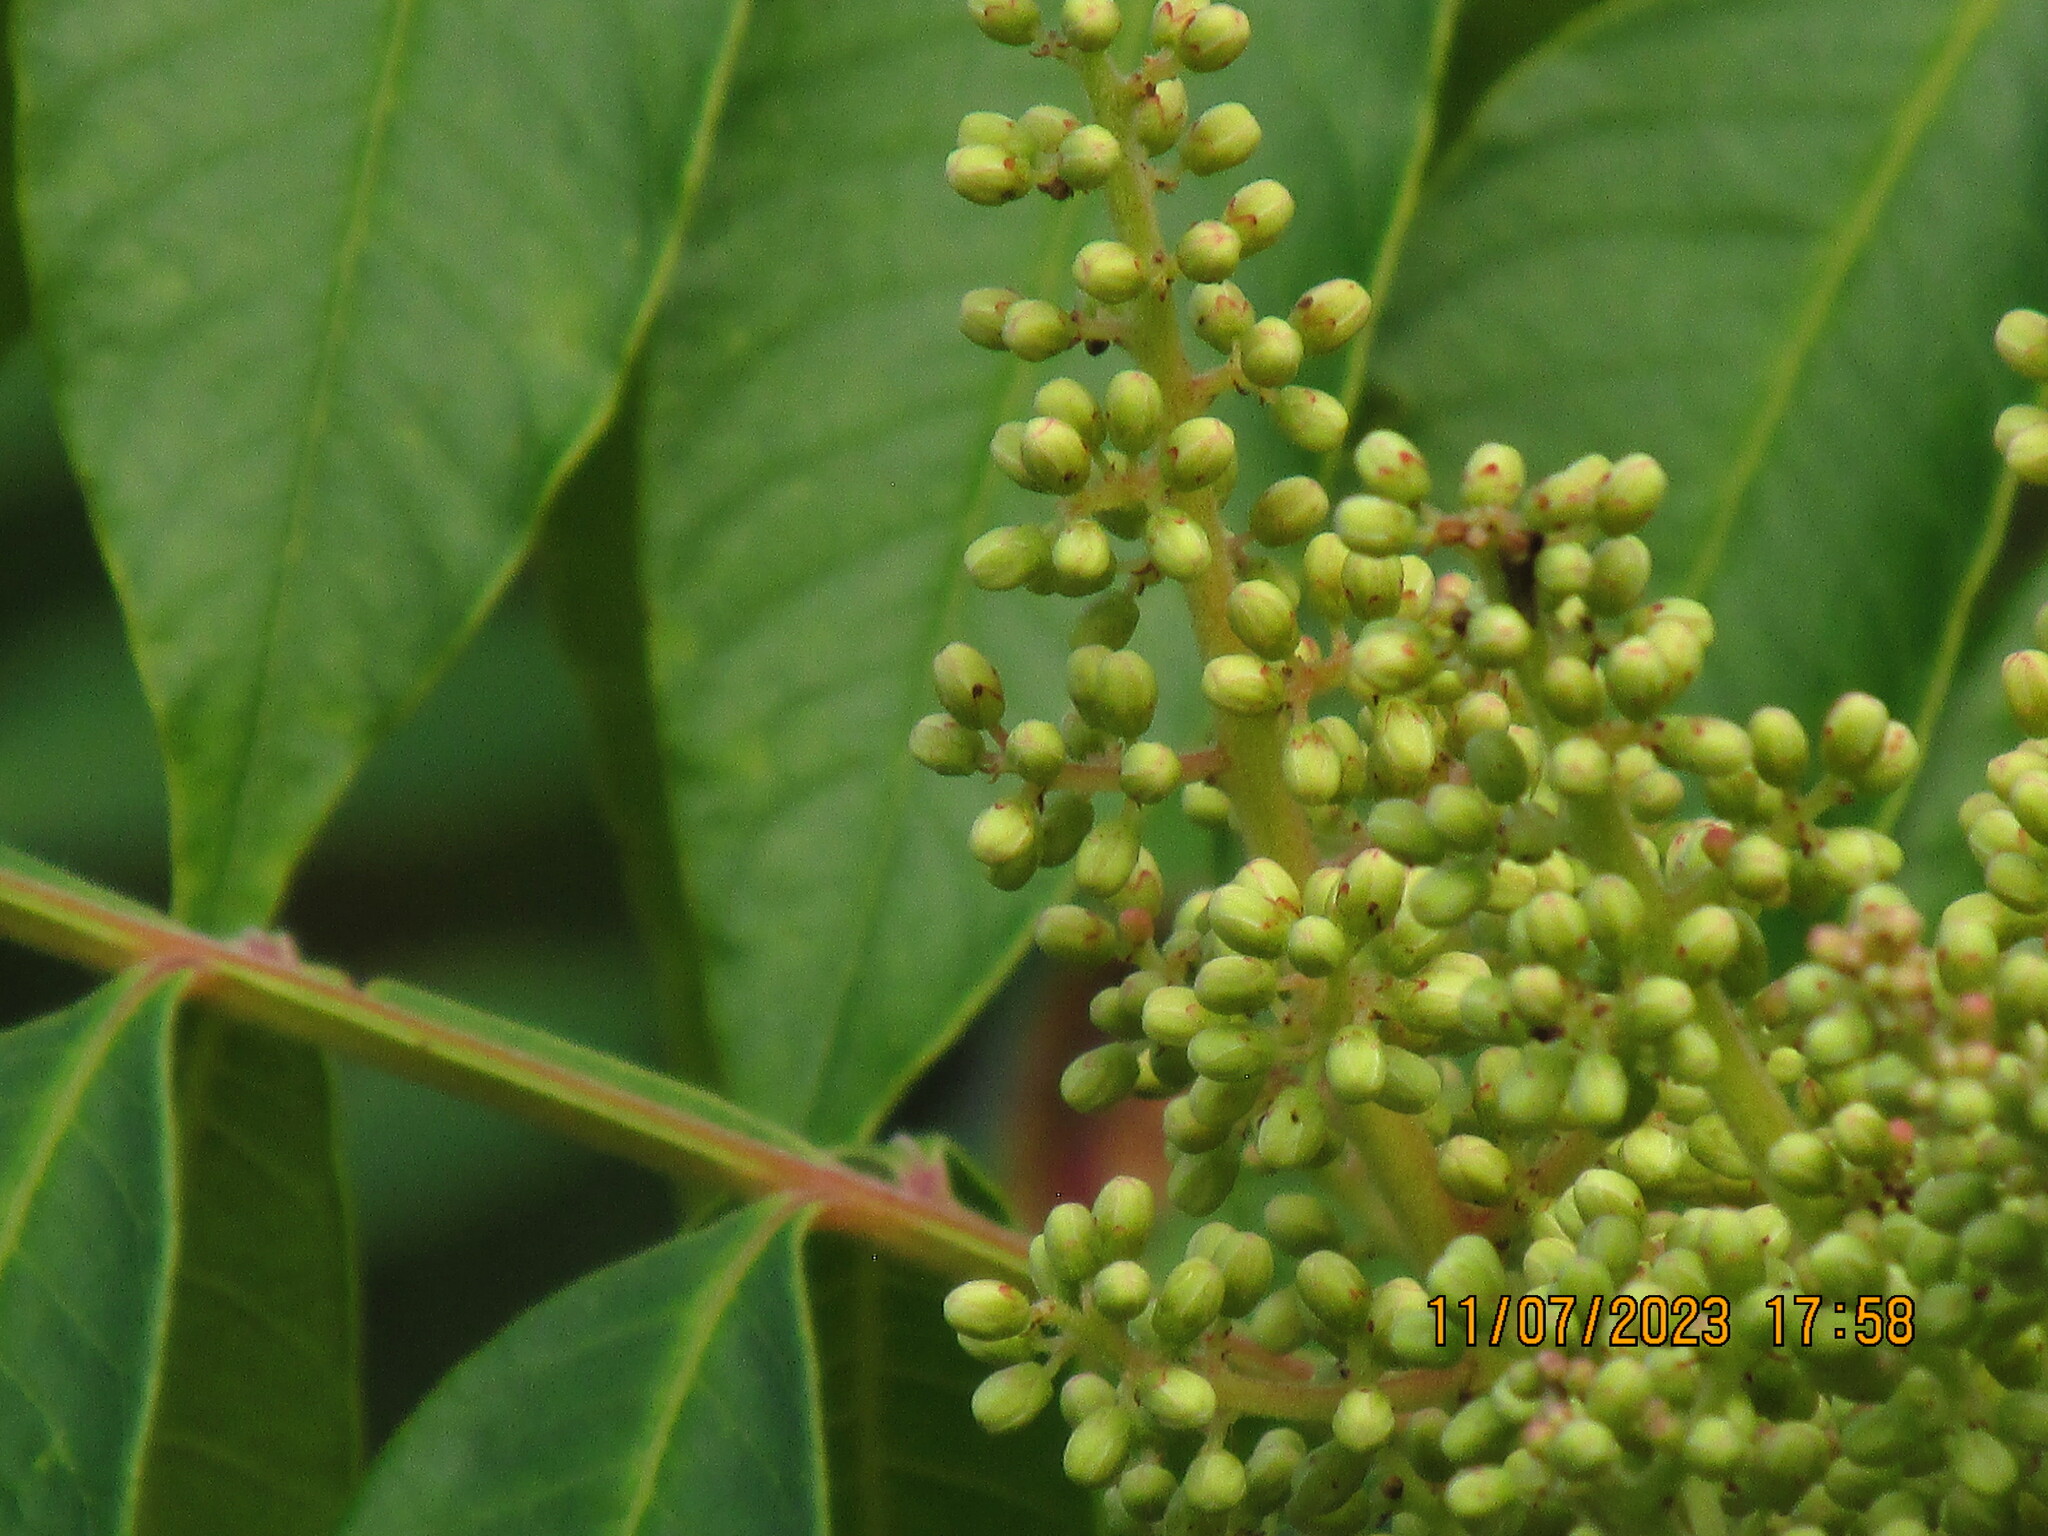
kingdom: Plantae
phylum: Tracheophyta
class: Magnoliopsida
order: Sapindales
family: Anacardiaceae
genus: Rhus
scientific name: Rhus copallina
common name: Shining sumac
